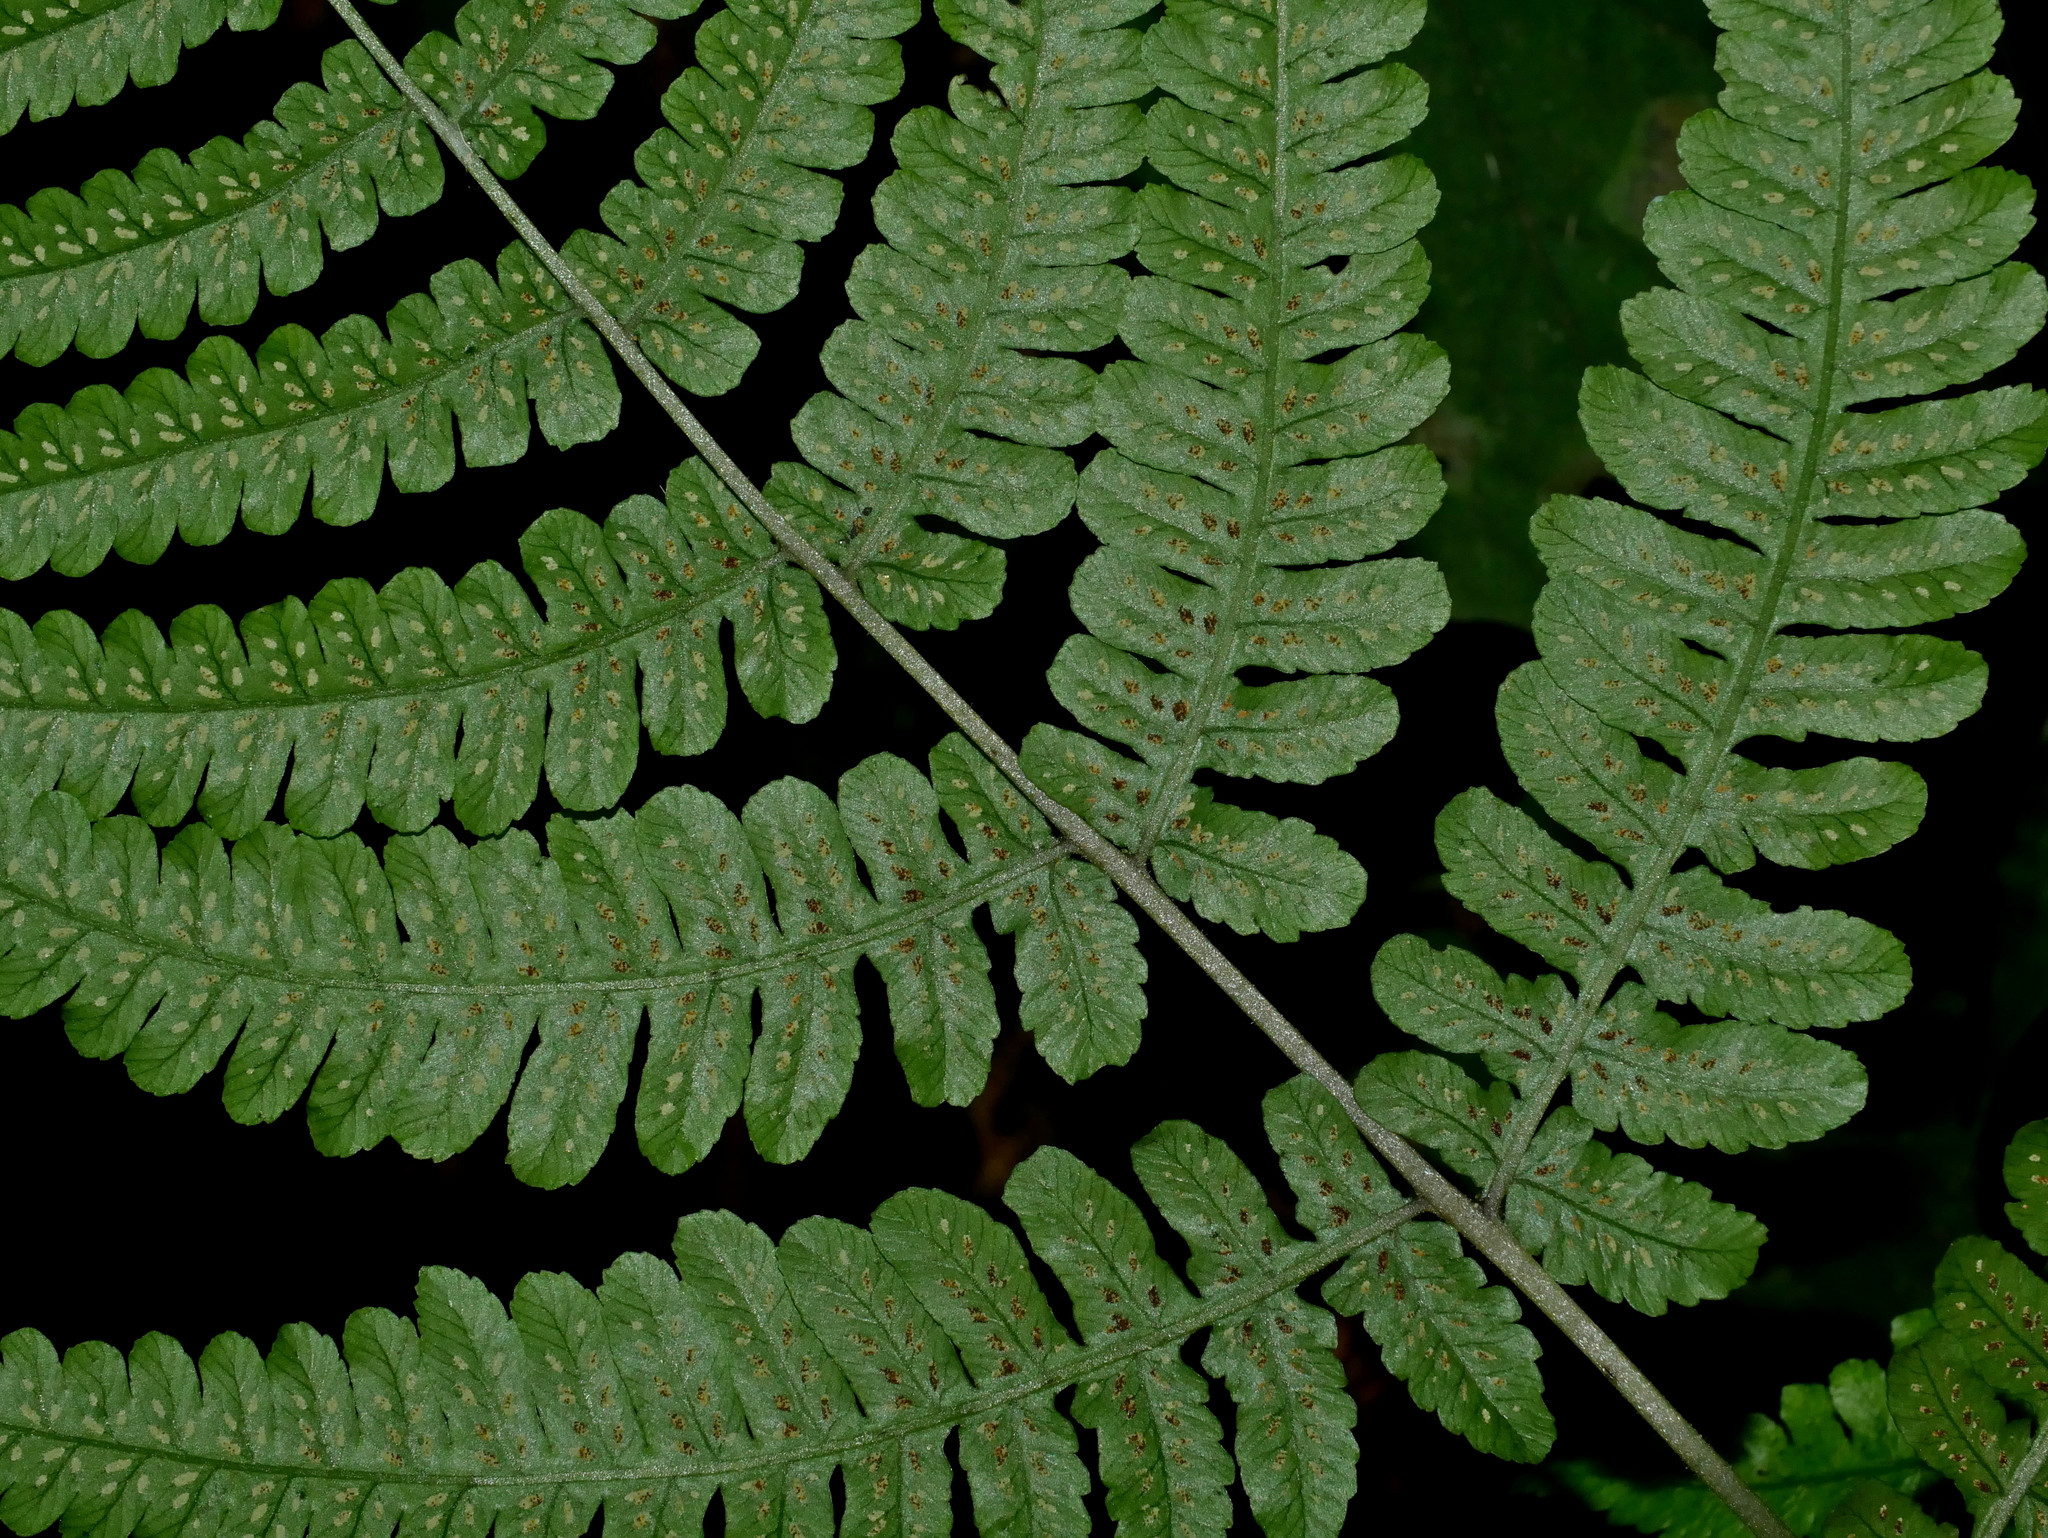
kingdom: Plantae
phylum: Tracheophyta
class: Polypodiopsida
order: Polypodiales
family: Athyriaceae
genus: Cornopteris
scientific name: Cornopteris opaca
